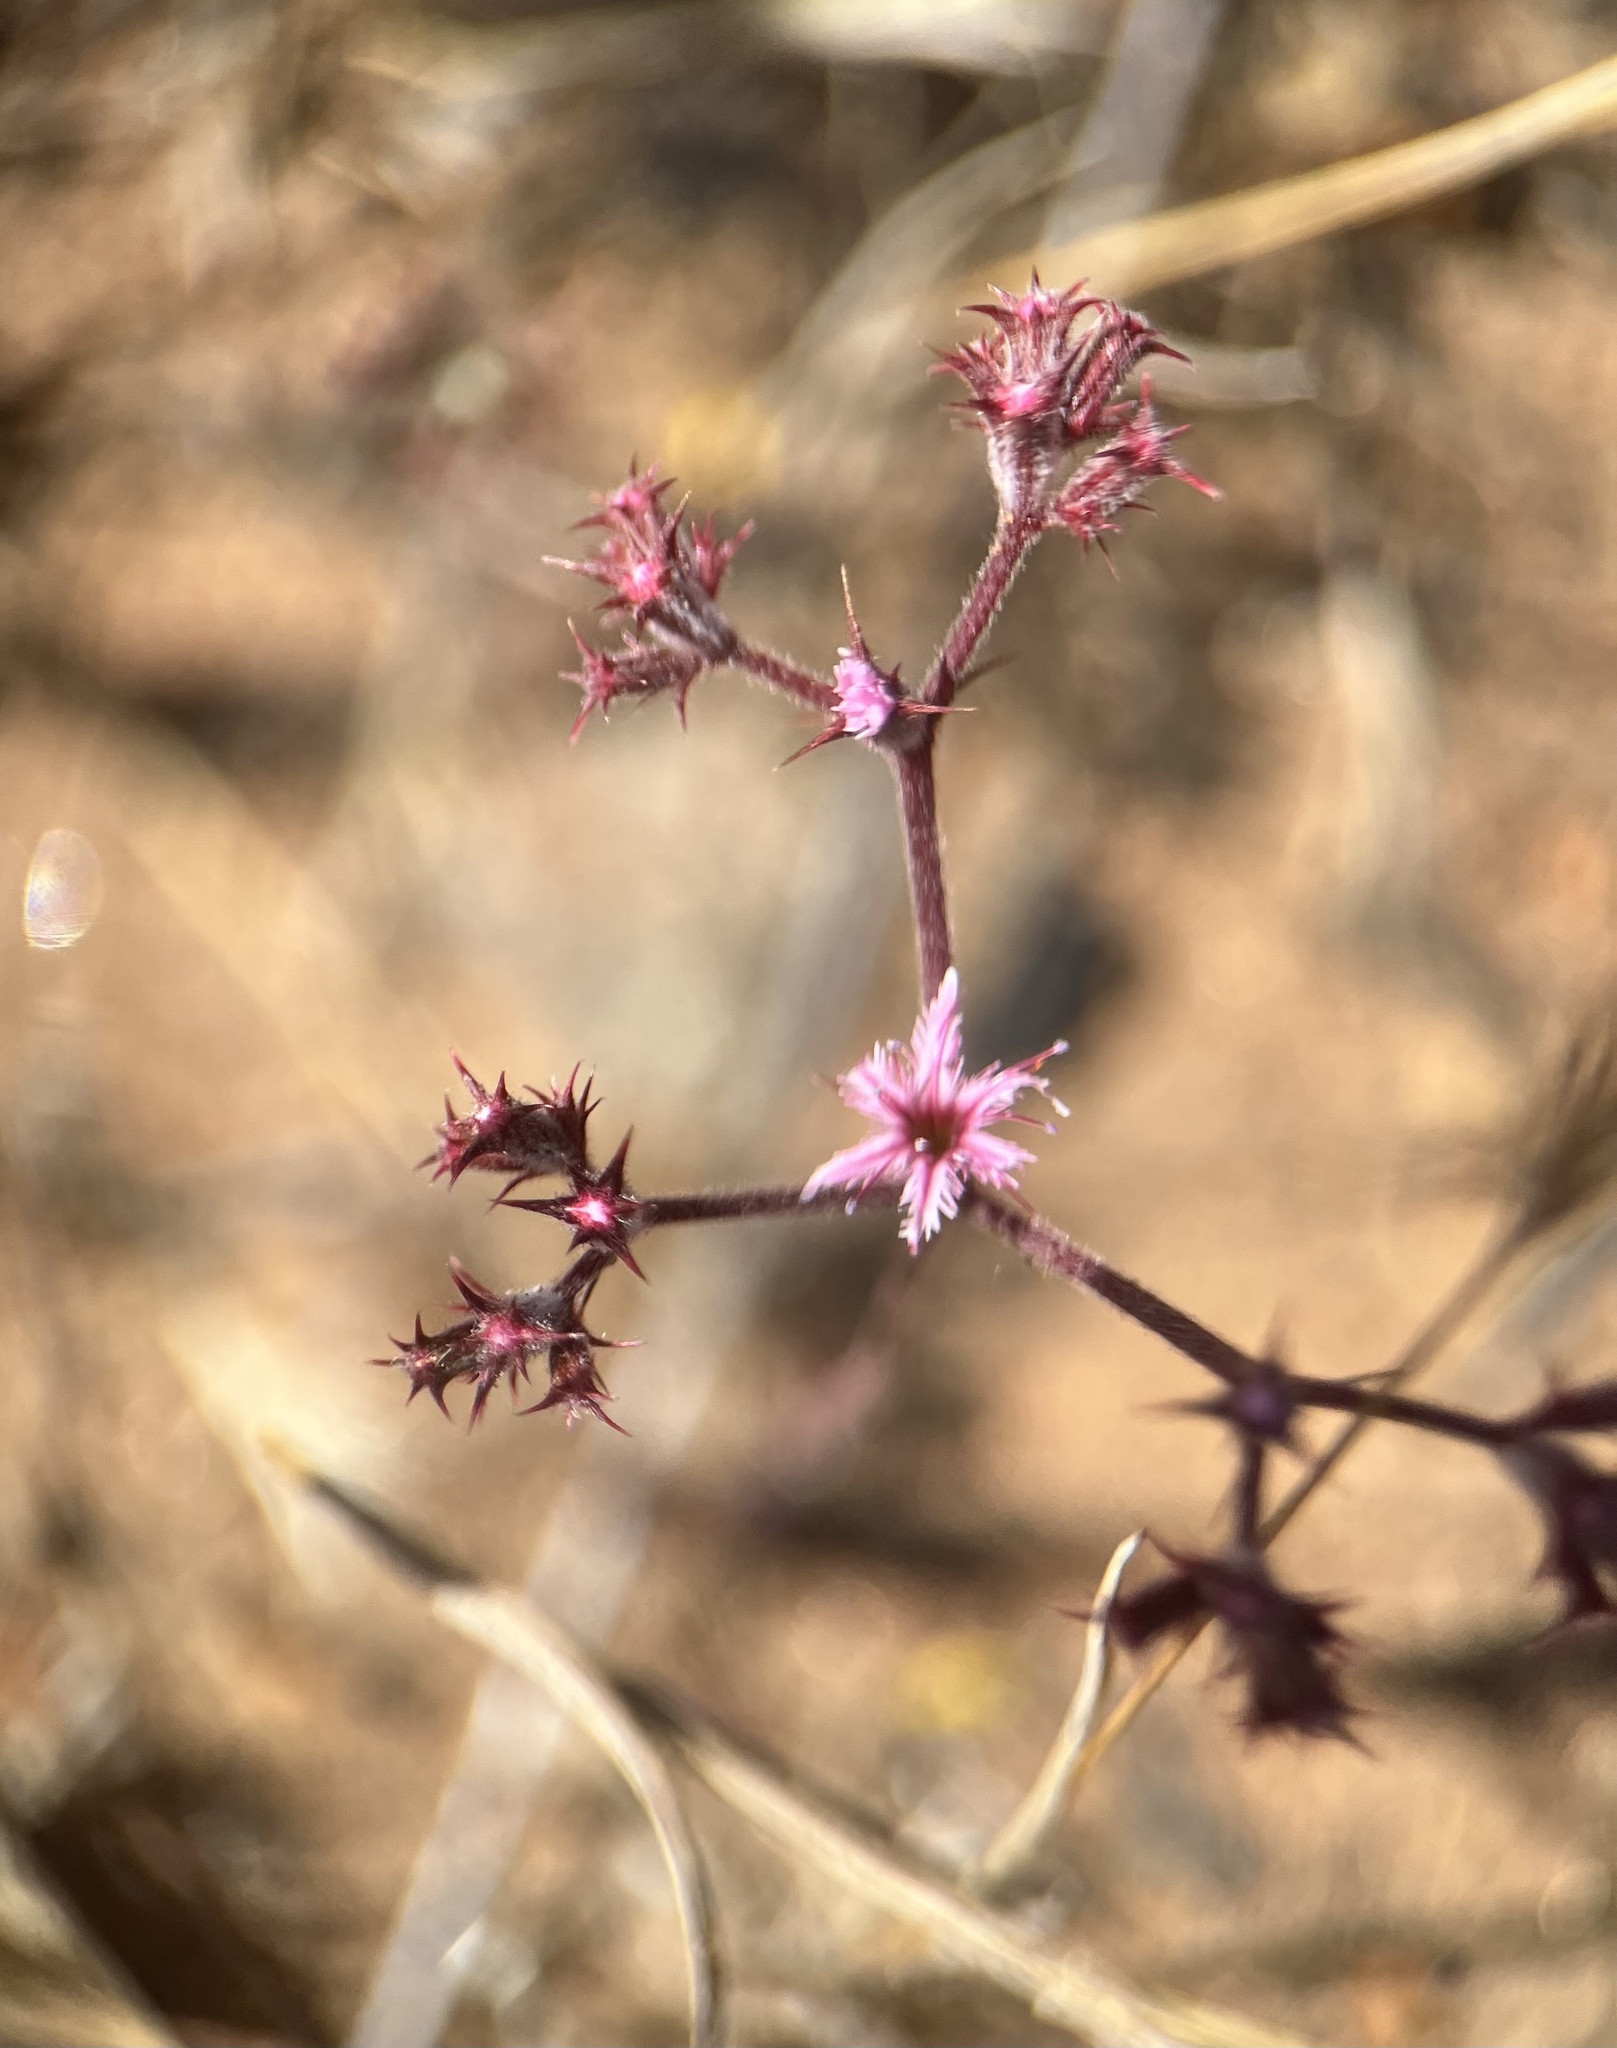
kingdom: Plantae
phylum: Tracheophyta
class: Magnoliopsida
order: Caryophyllales
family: Polygonaceae
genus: Chorizanthe
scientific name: Chorizanthe fimbriata
